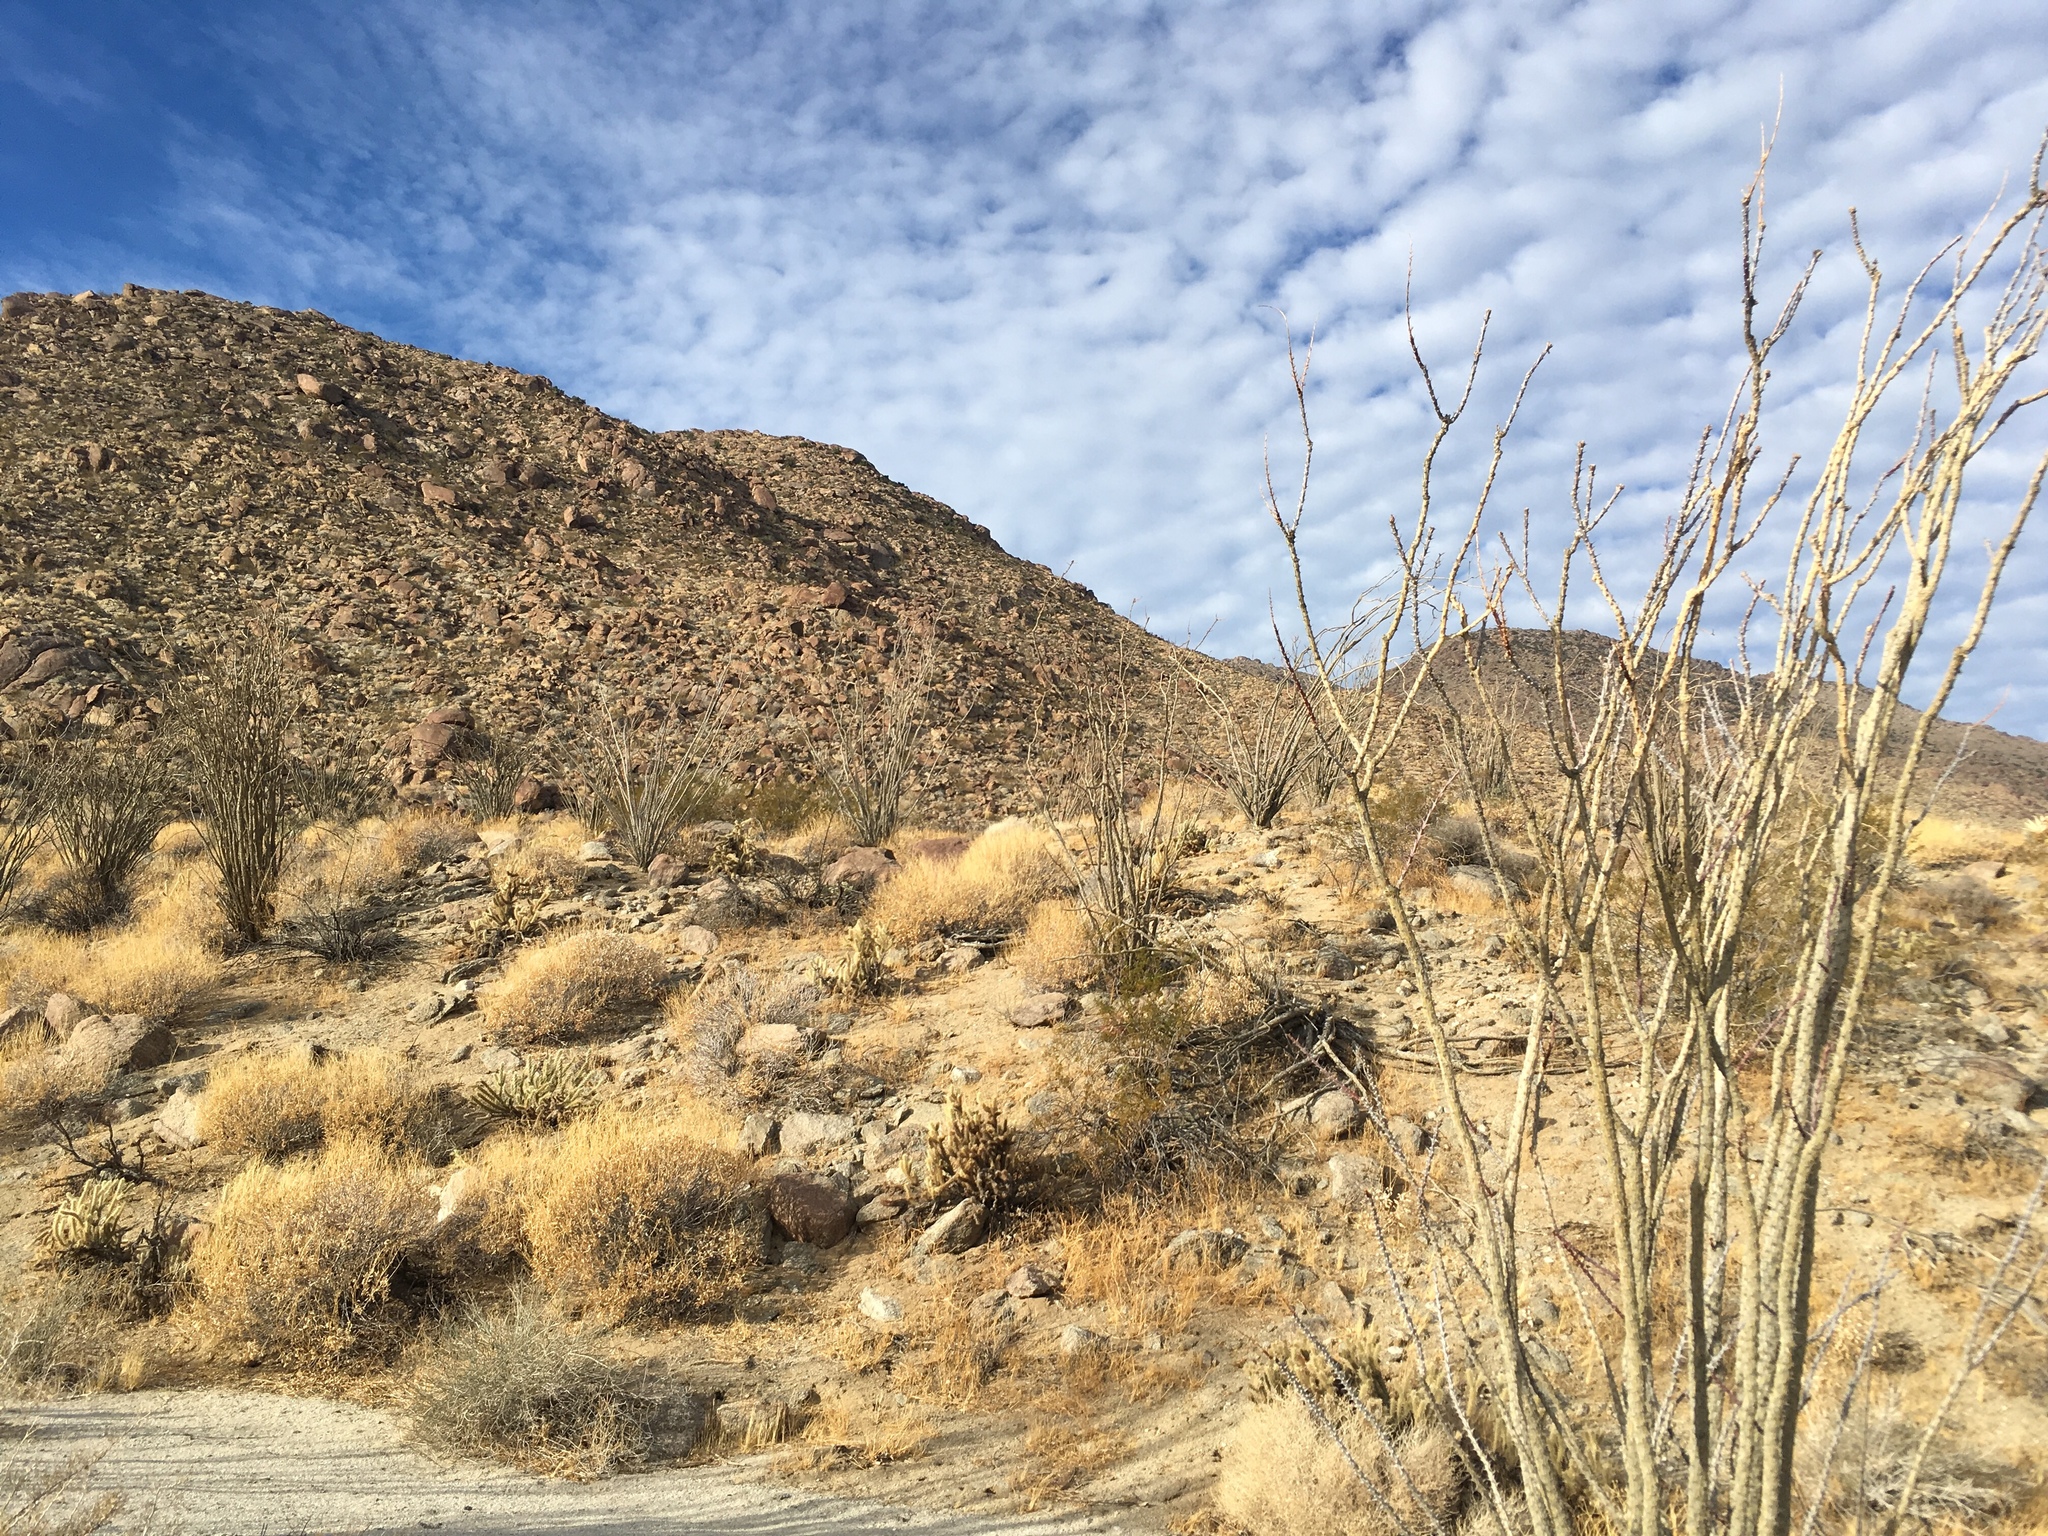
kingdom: Plantae
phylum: Tracheophyta
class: Magnoliopsida
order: Ericales
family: Fouquieriaceae
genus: Fouquieria
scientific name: Fouquieria splendens
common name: Vine-cactus
